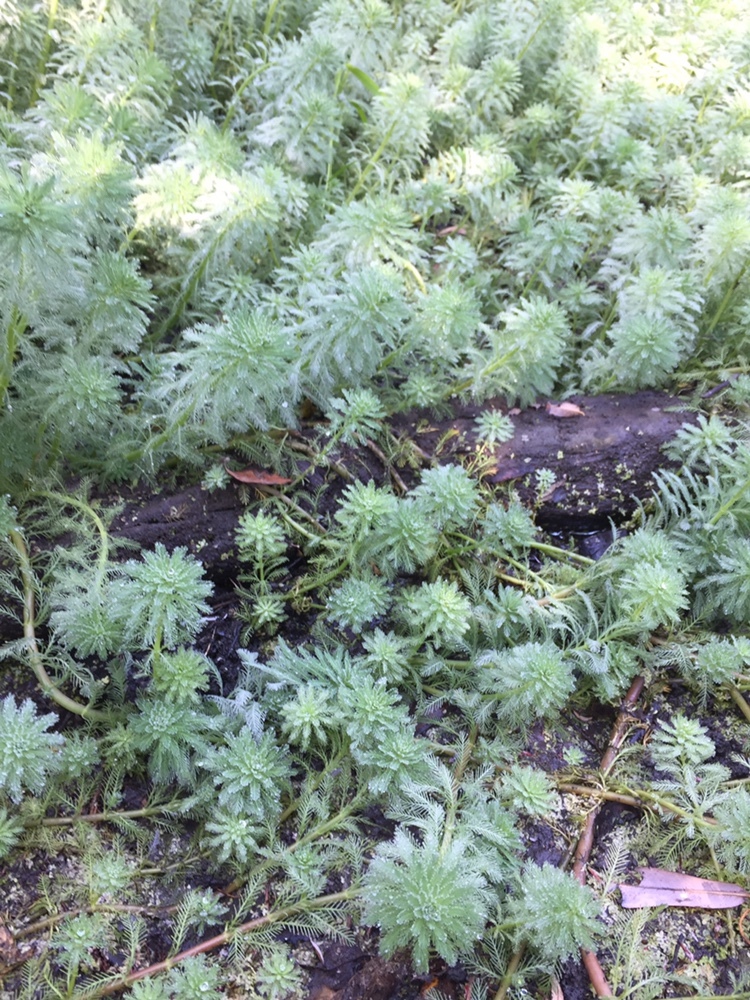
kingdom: Plantae
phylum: Tracheophyta
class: Magnoliopsida
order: Saxifragales
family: Haloragaceae
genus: Myriophyllum
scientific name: Myriophyllum aquaticum
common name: Parrot's feather
